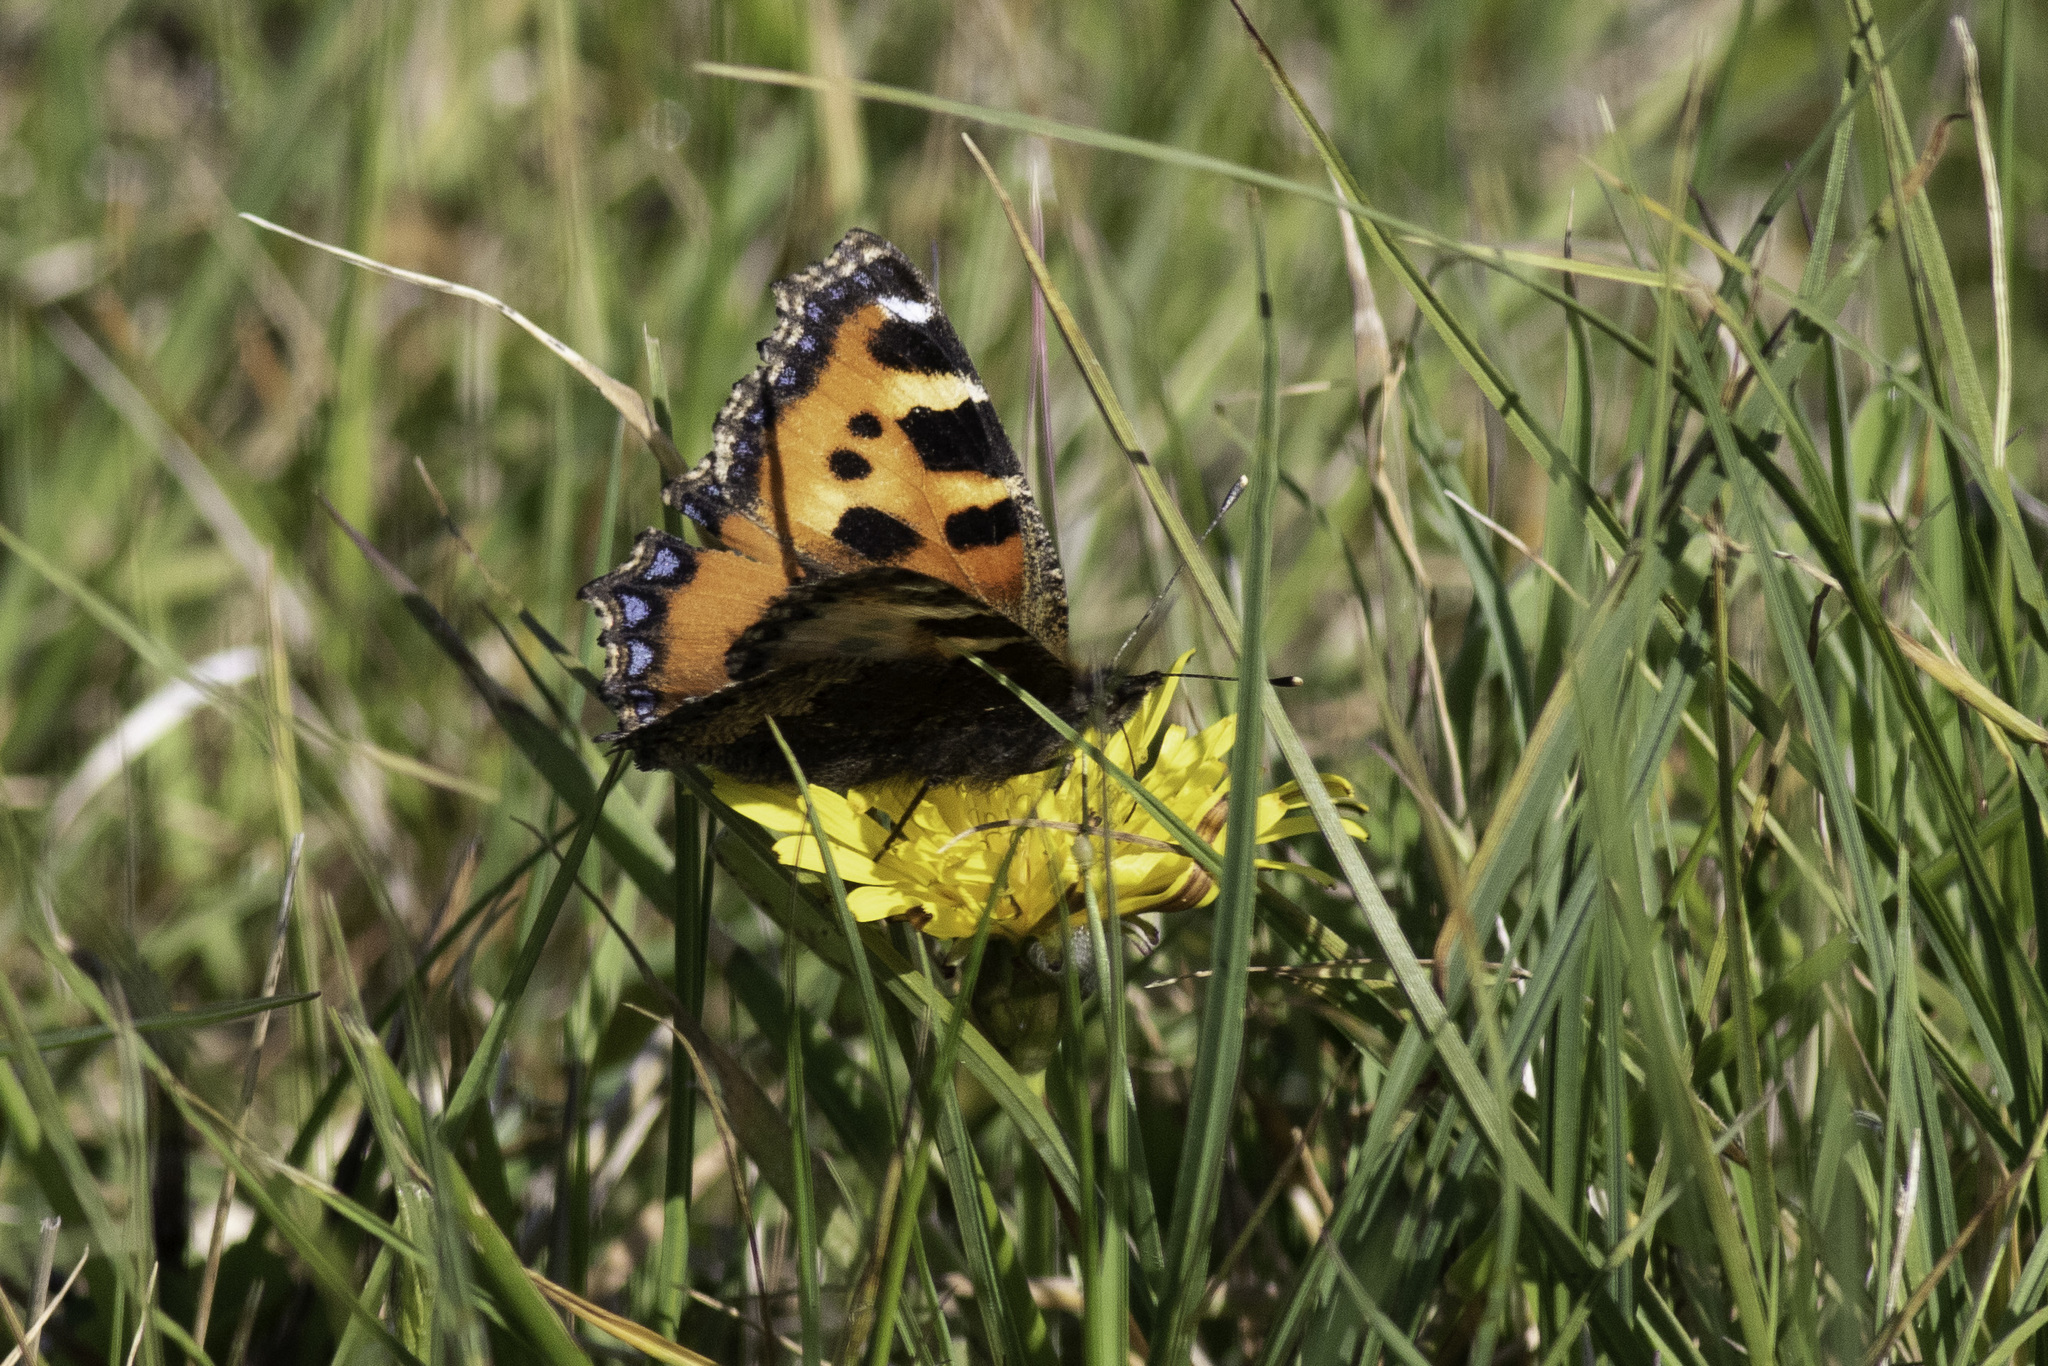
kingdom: Animalia
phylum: Arthropoda
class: Insecta
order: Lepidoptera
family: Nymphalidae
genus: Aglais
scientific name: Aglais urticae
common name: Small tortoiseshell
